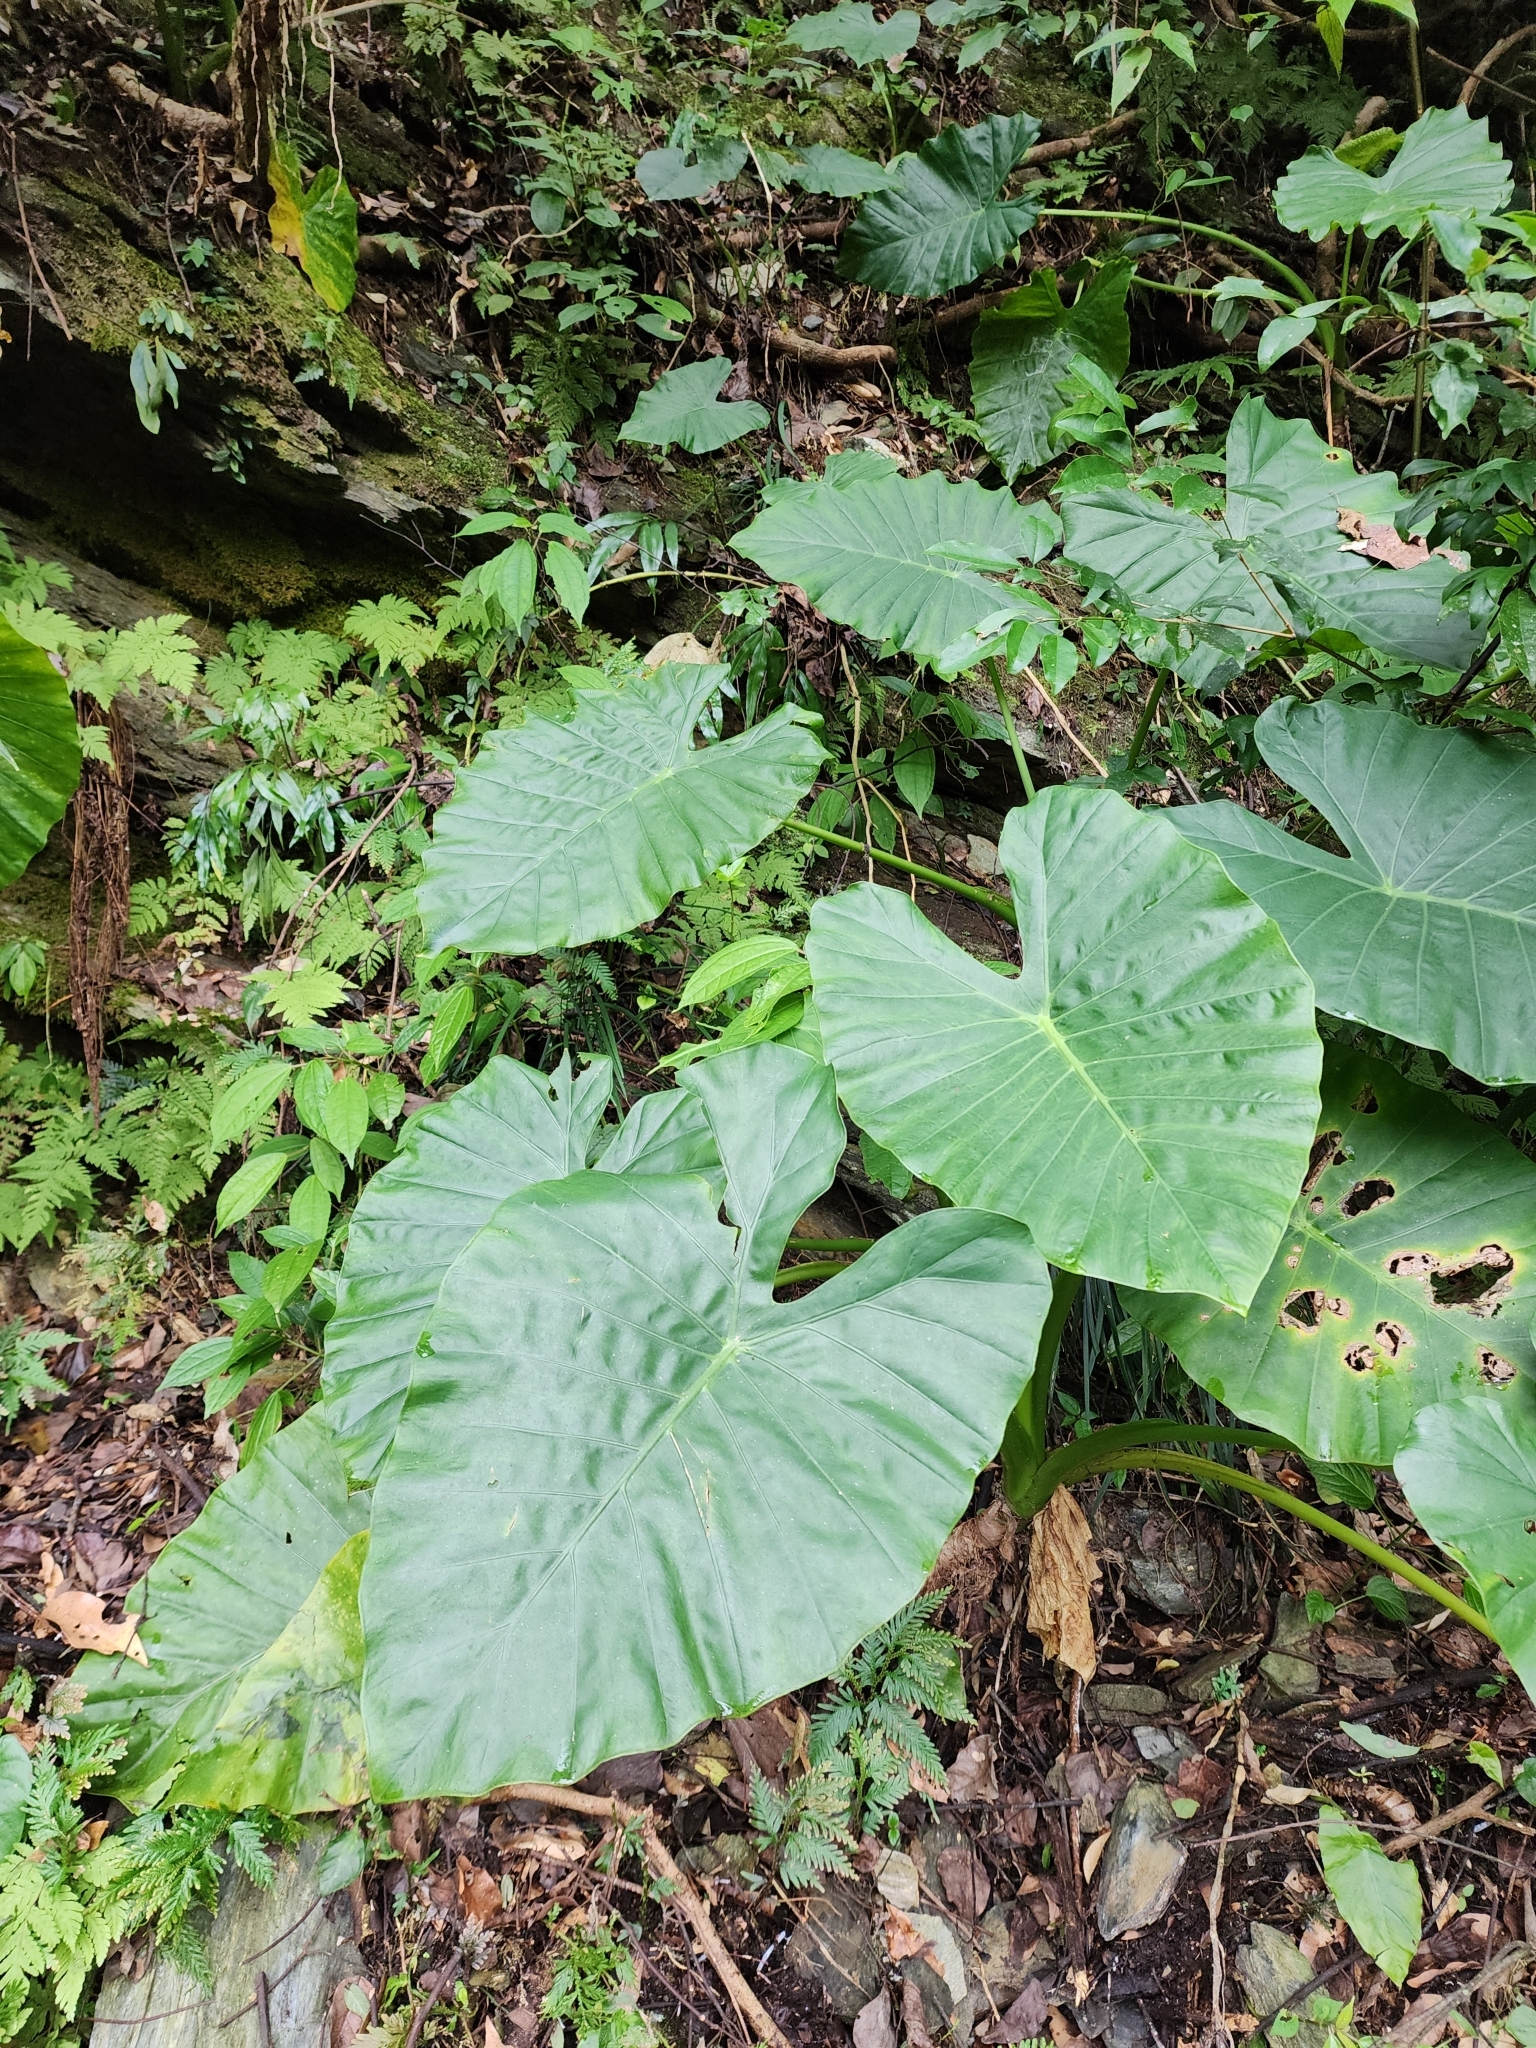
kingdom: Plantae
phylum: Tracheophyta
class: Liliopsida
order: Alismatales
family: Araceae
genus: Alocasia
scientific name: Alocasia odora
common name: Asian taro
